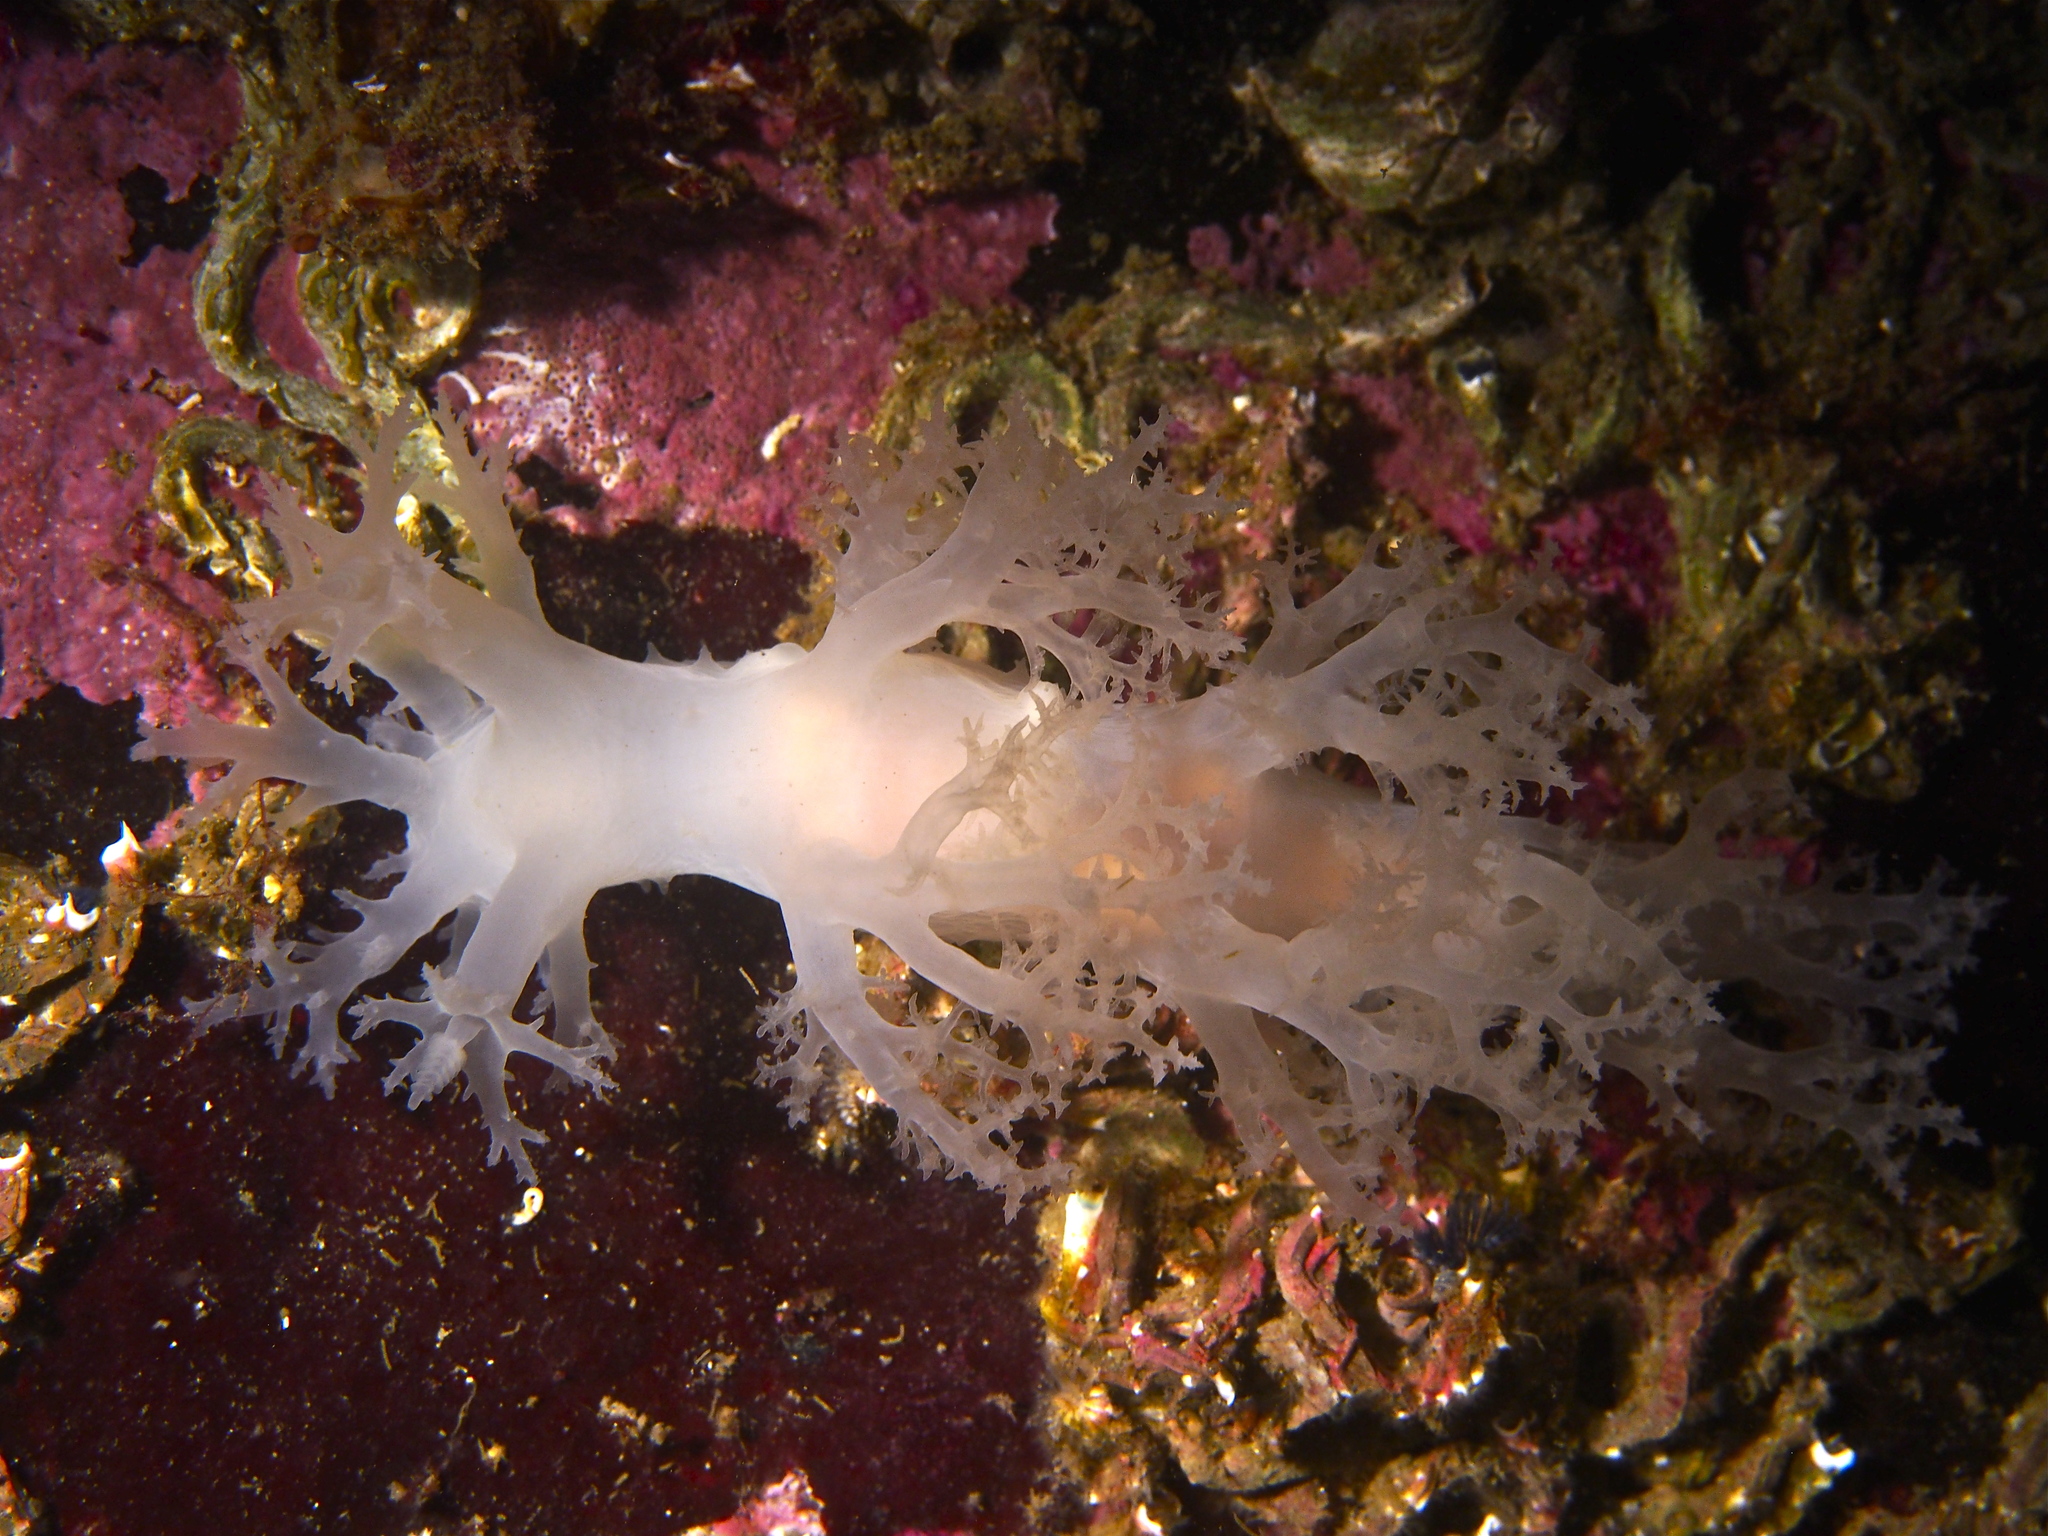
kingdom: Animalia
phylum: Mollusca
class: Gastropoda
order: Nudibranchia
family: Dendronotidae
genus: Dendronotus
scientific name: Dendronotus lacteus
